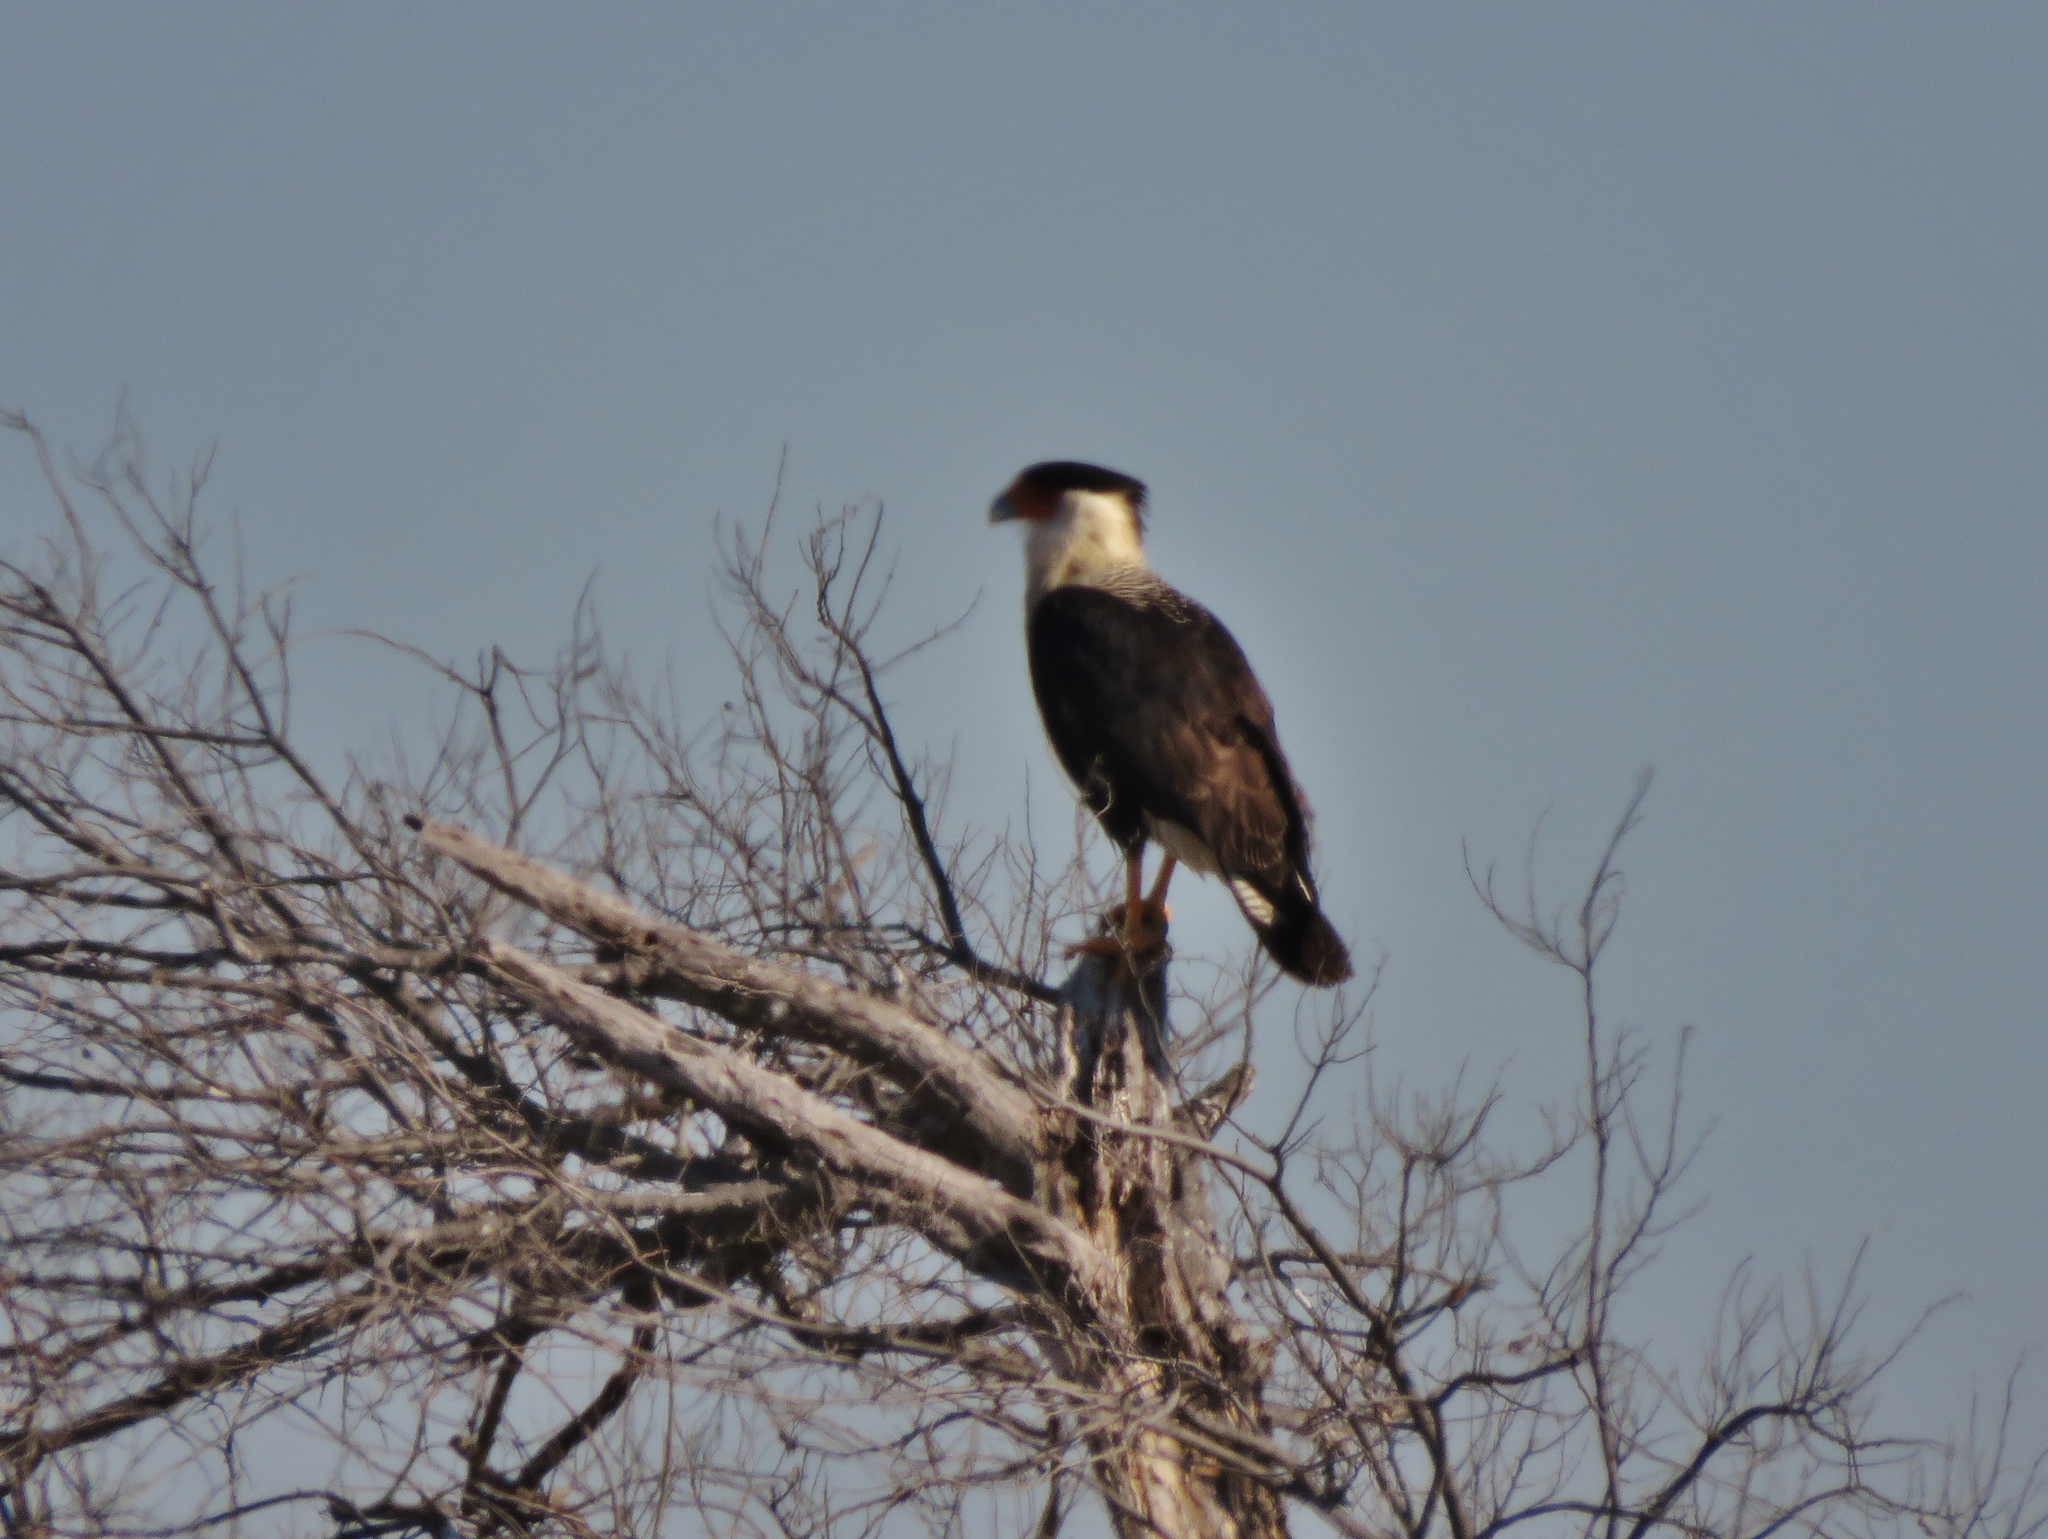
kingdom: Animalia
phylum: Chordata
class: Aves
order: Falconiformes
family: Falconidae
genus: Caracara
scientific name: Caracara plancus
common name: Southern caracara
